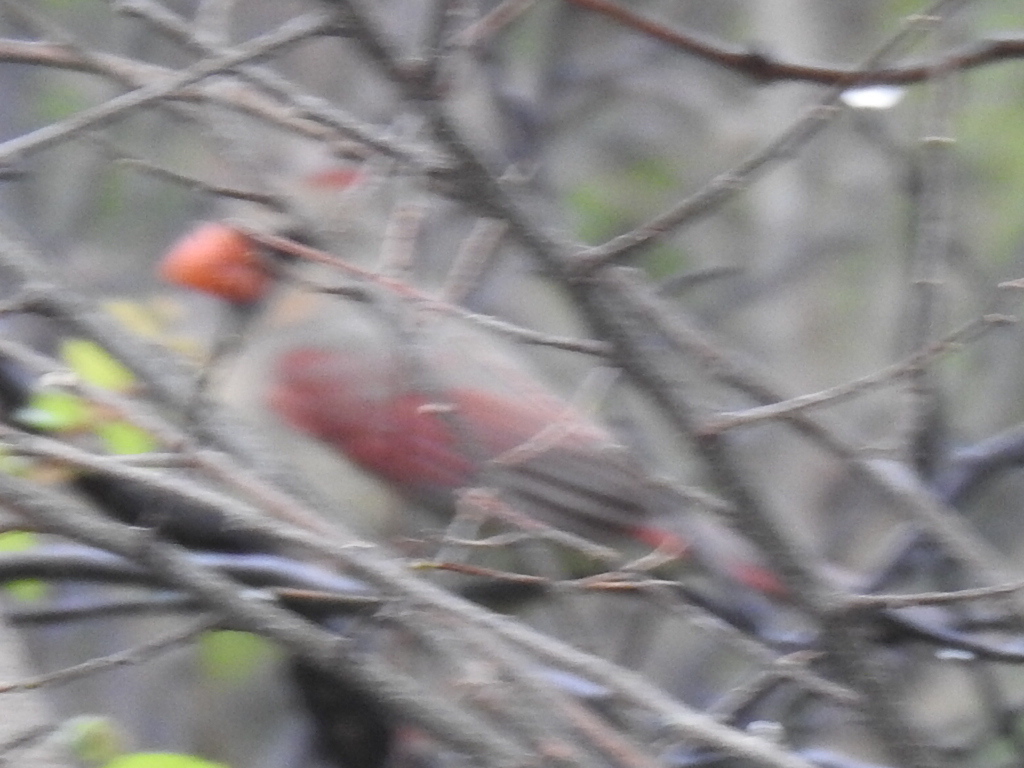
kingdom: Animalia
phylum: Chordata
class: Aves
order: Passeriformes
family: Cardinalidae
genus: Cardinalis
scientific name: Cardinalis cardinalis
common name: Northern cardinal
